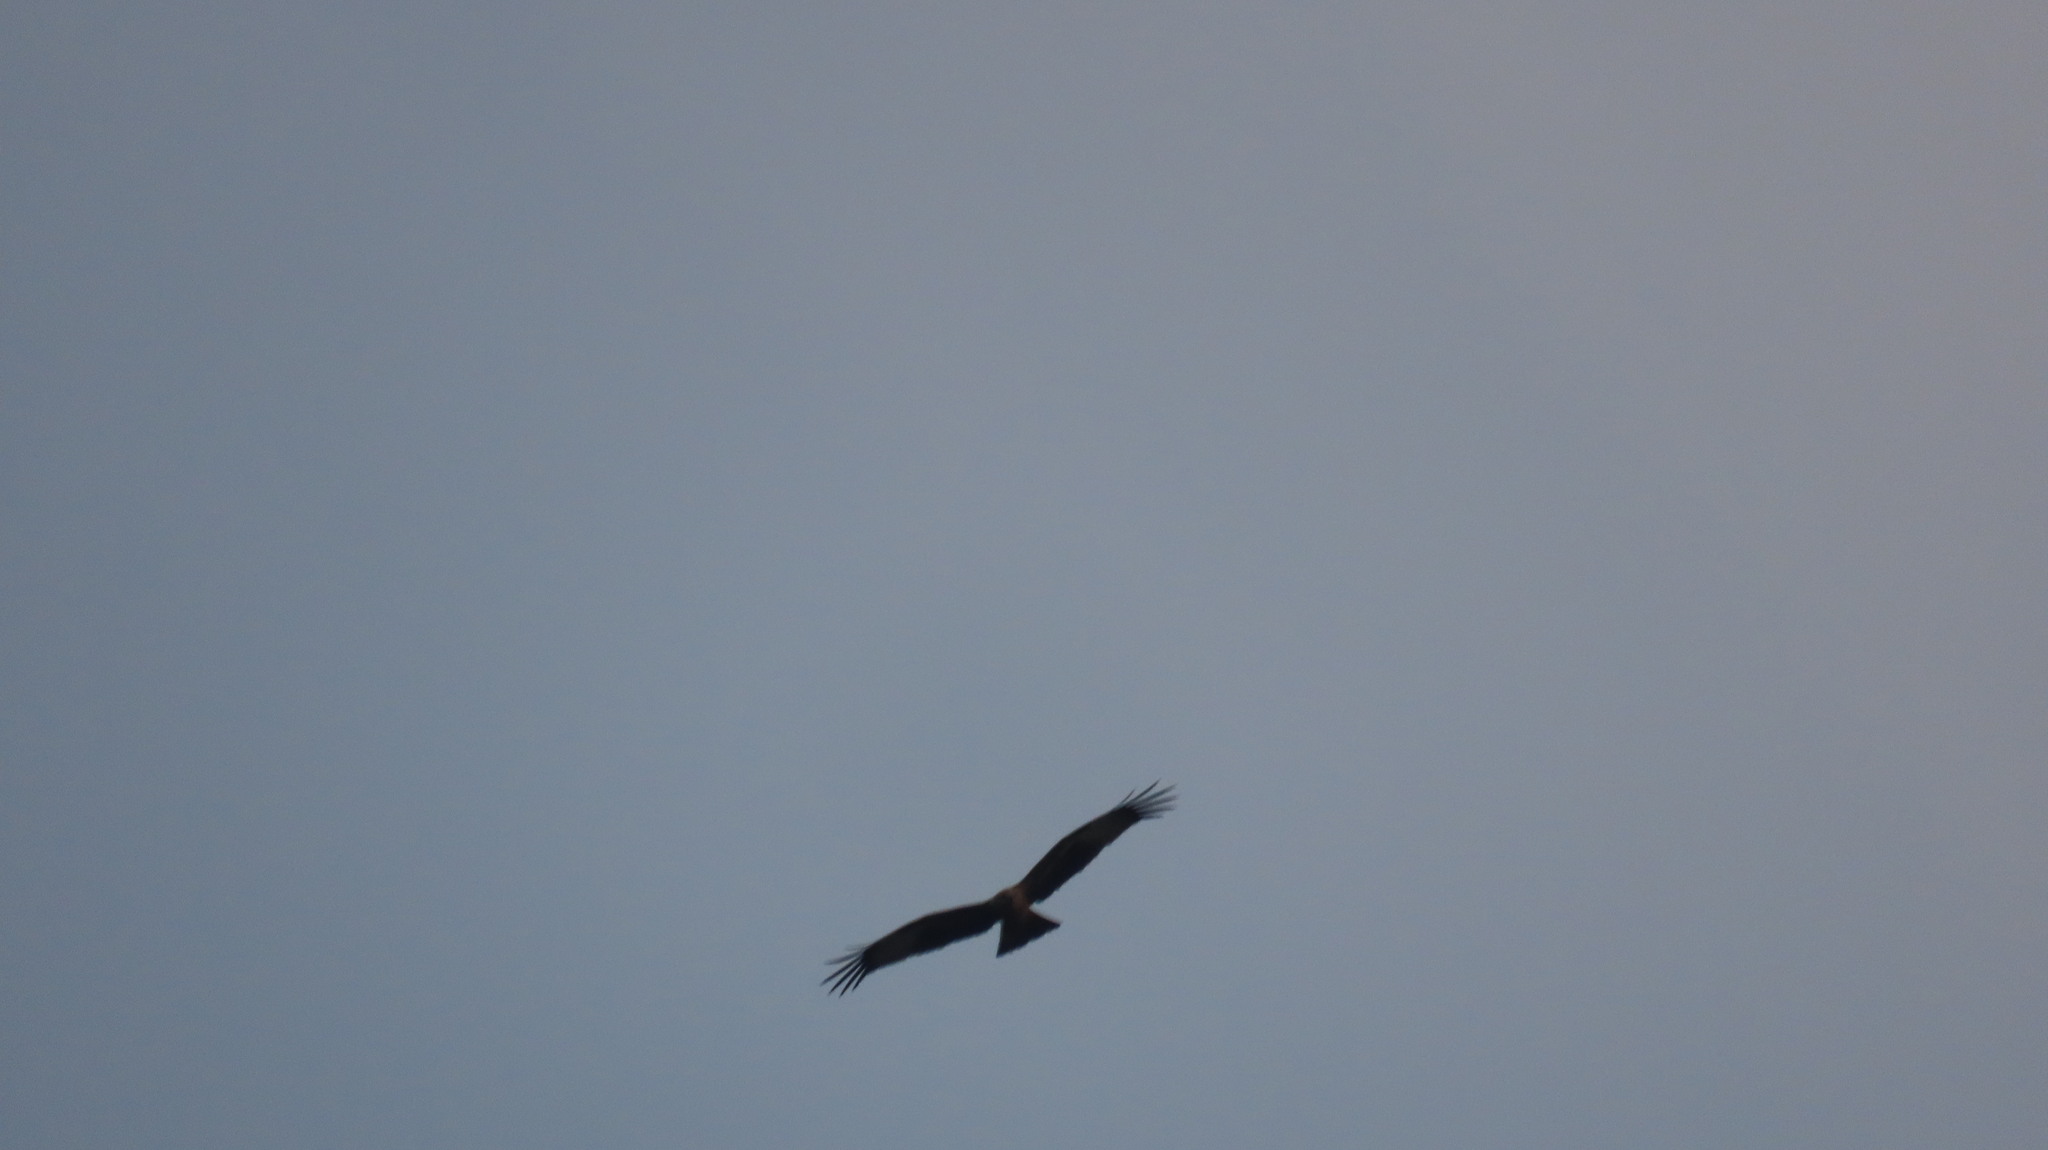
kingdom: Animalia
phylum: Chordata
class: Aves
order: Accipitriformes
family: Accipitridae
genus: Milvus
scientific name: Milvus migrans
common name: Black kite
